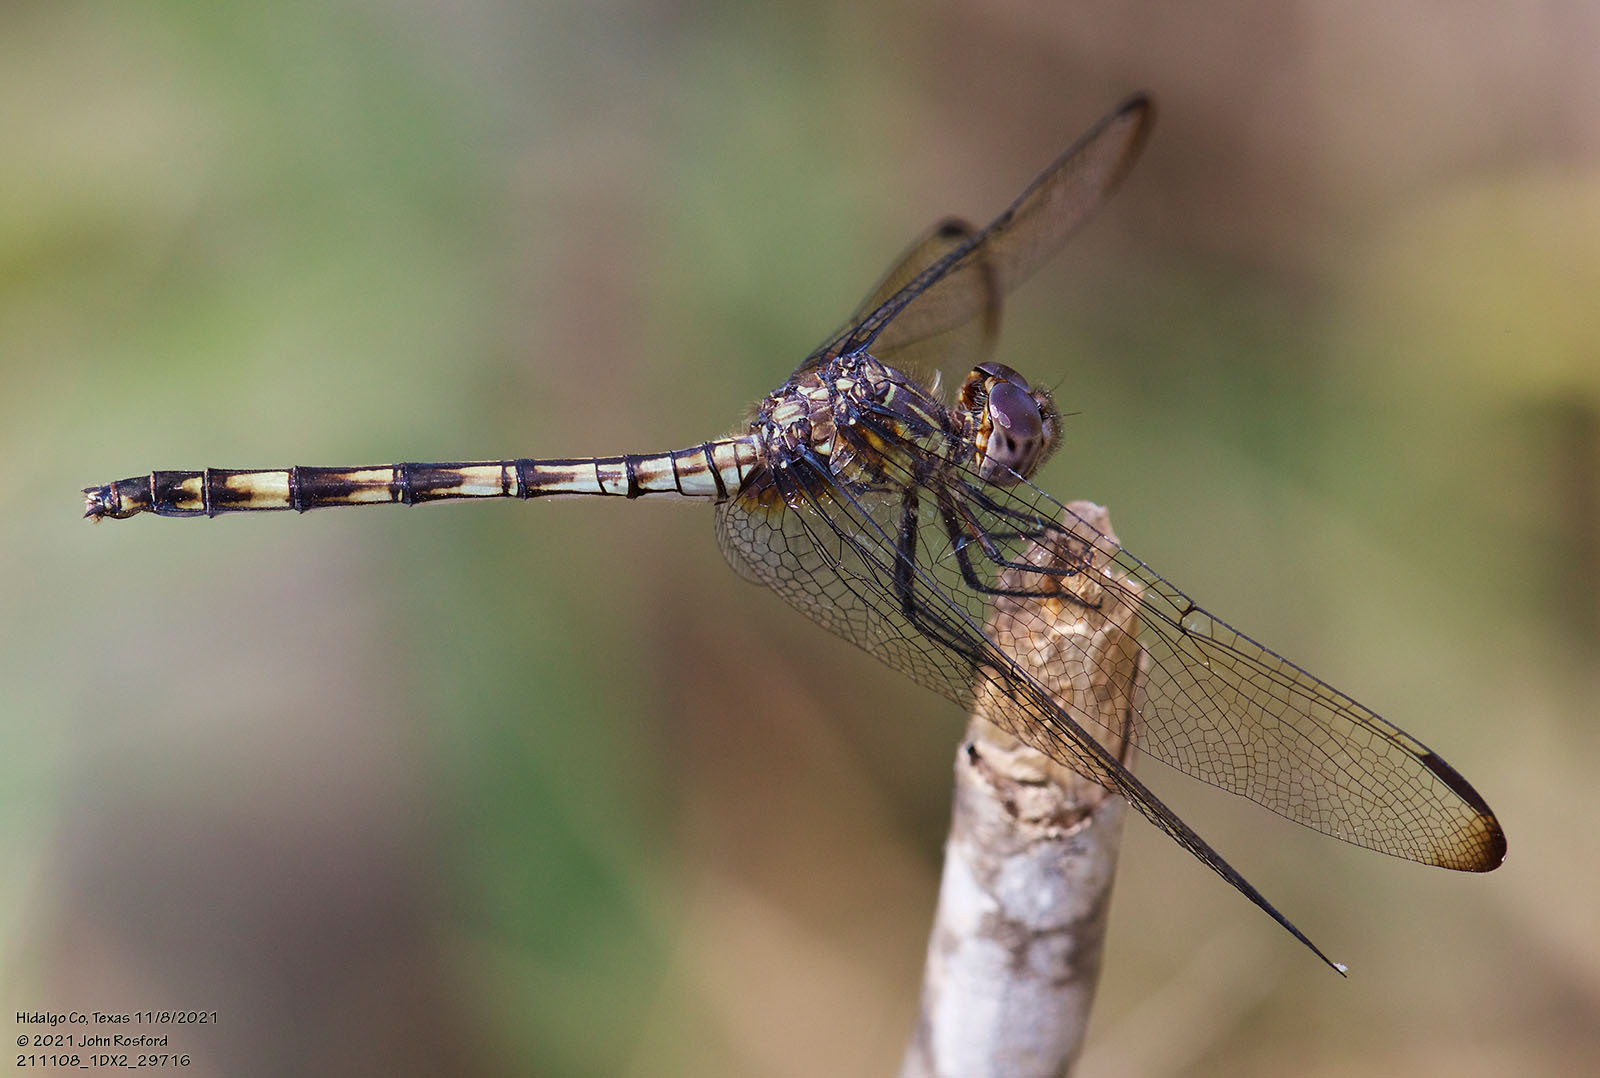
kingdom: Animalia
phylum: Arthropoda
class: Insecta
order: Odonata
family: Libellulidae
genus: Dythemis
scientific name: Dythemis nigrescens
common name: Black setwing
